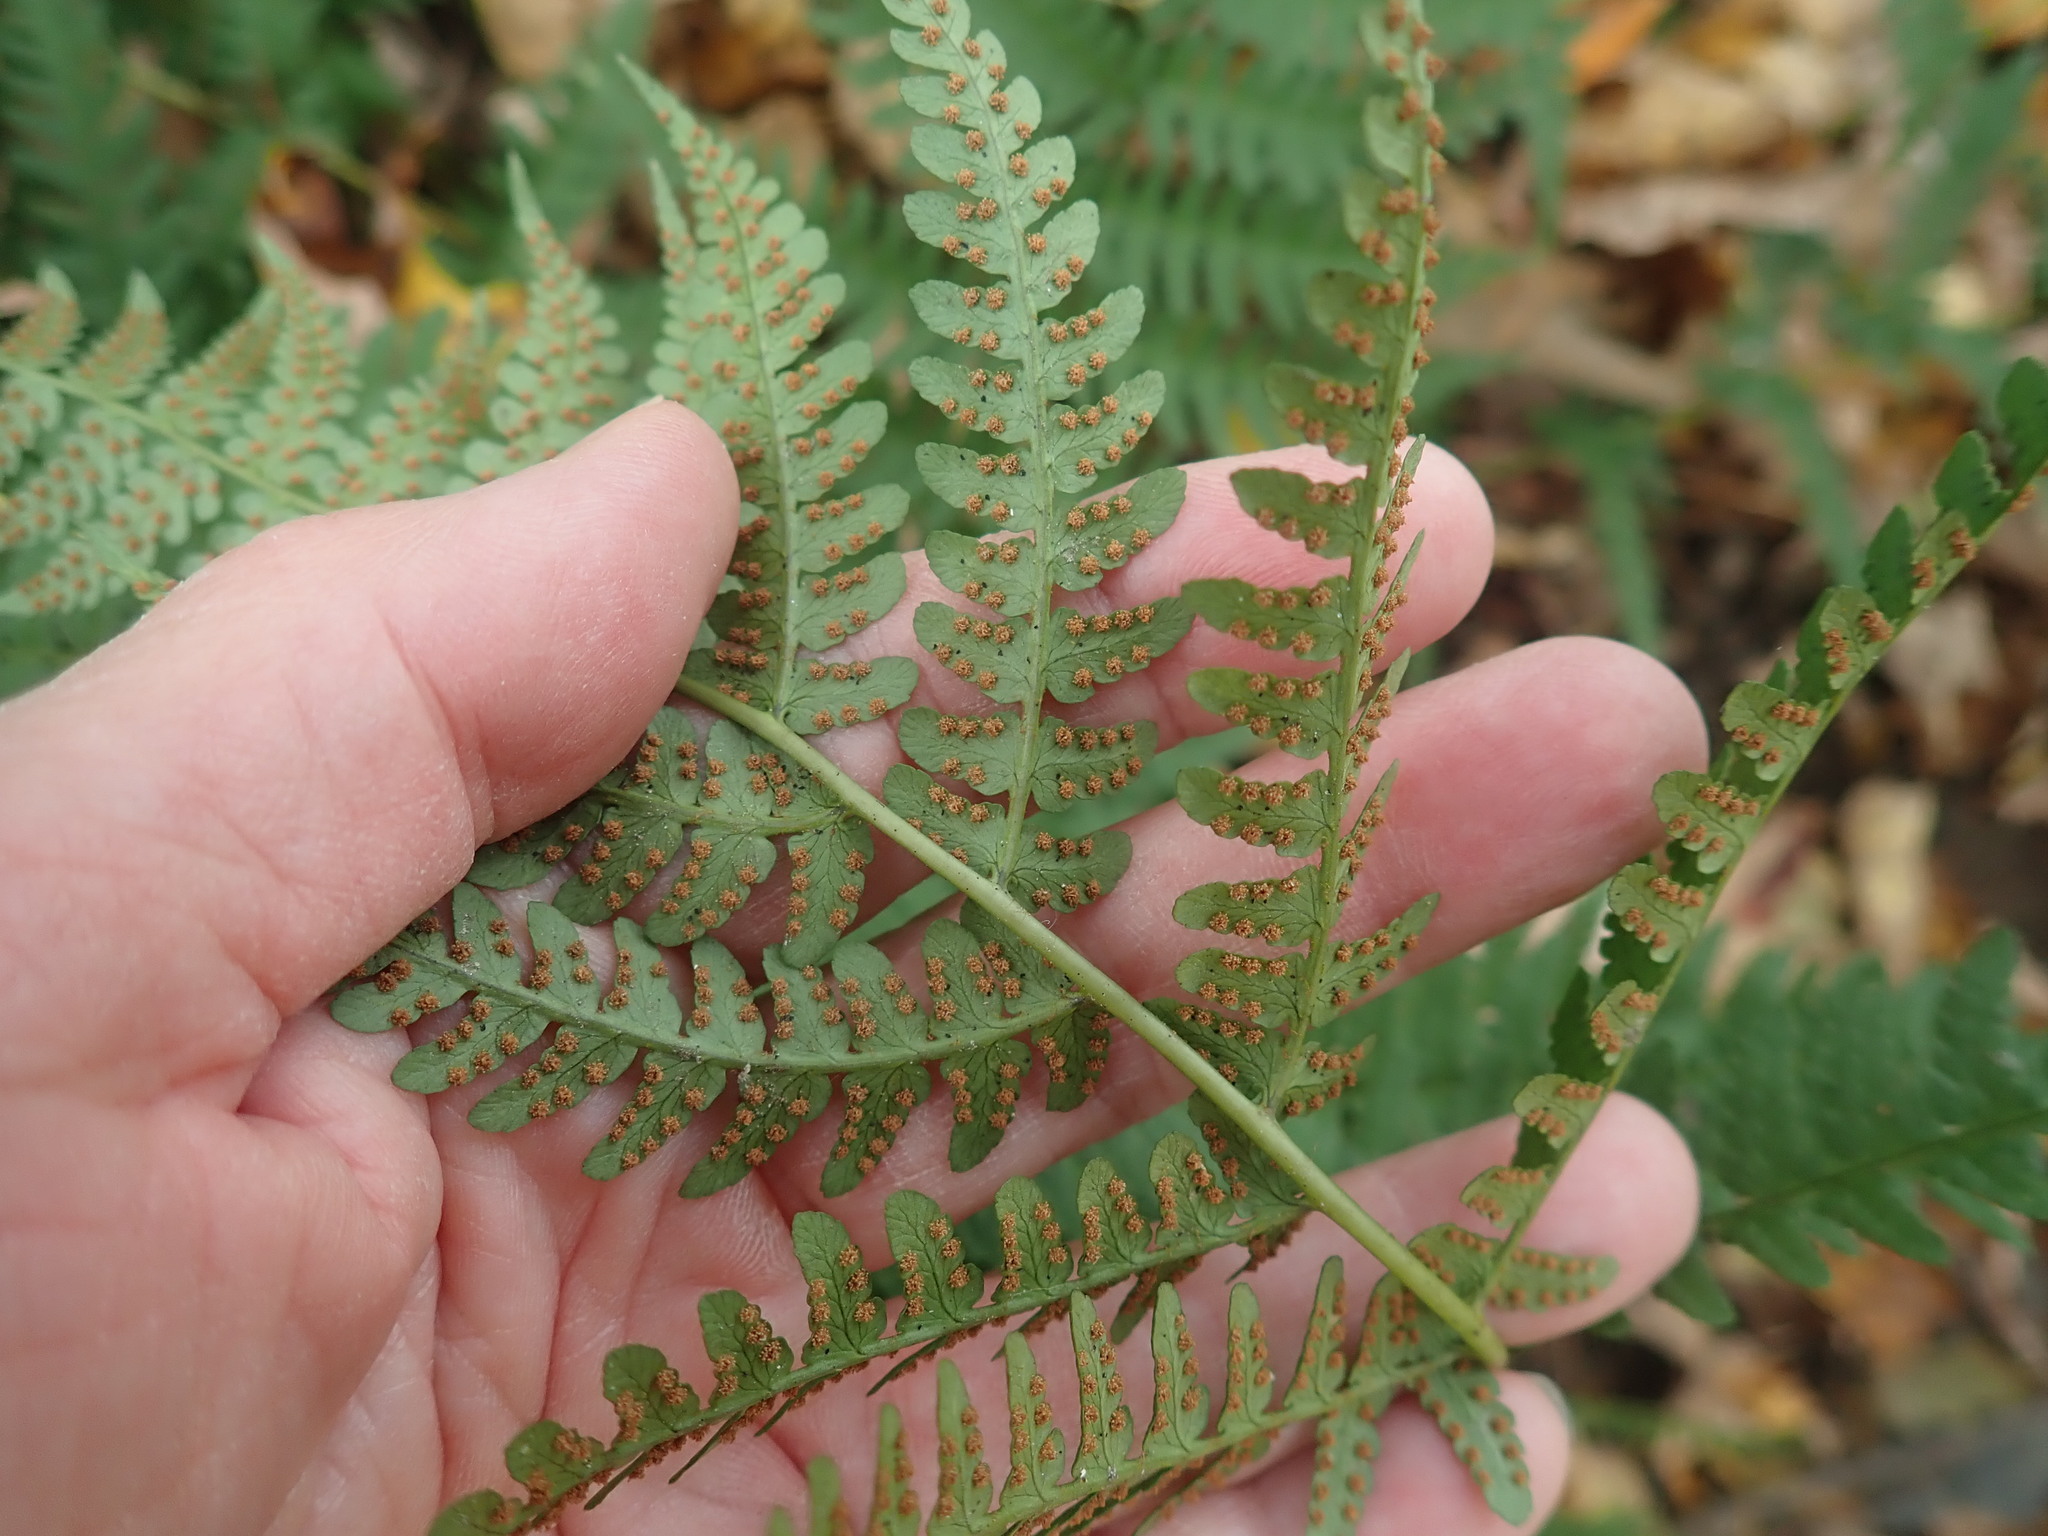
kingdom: Plantae
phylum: Tracheophyta
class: Polypodiopsida
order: Polypodiales
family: Dryopteridaceae
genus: Dryopteris
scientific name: Dryopteris marginalis
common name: Marginal wood fern
